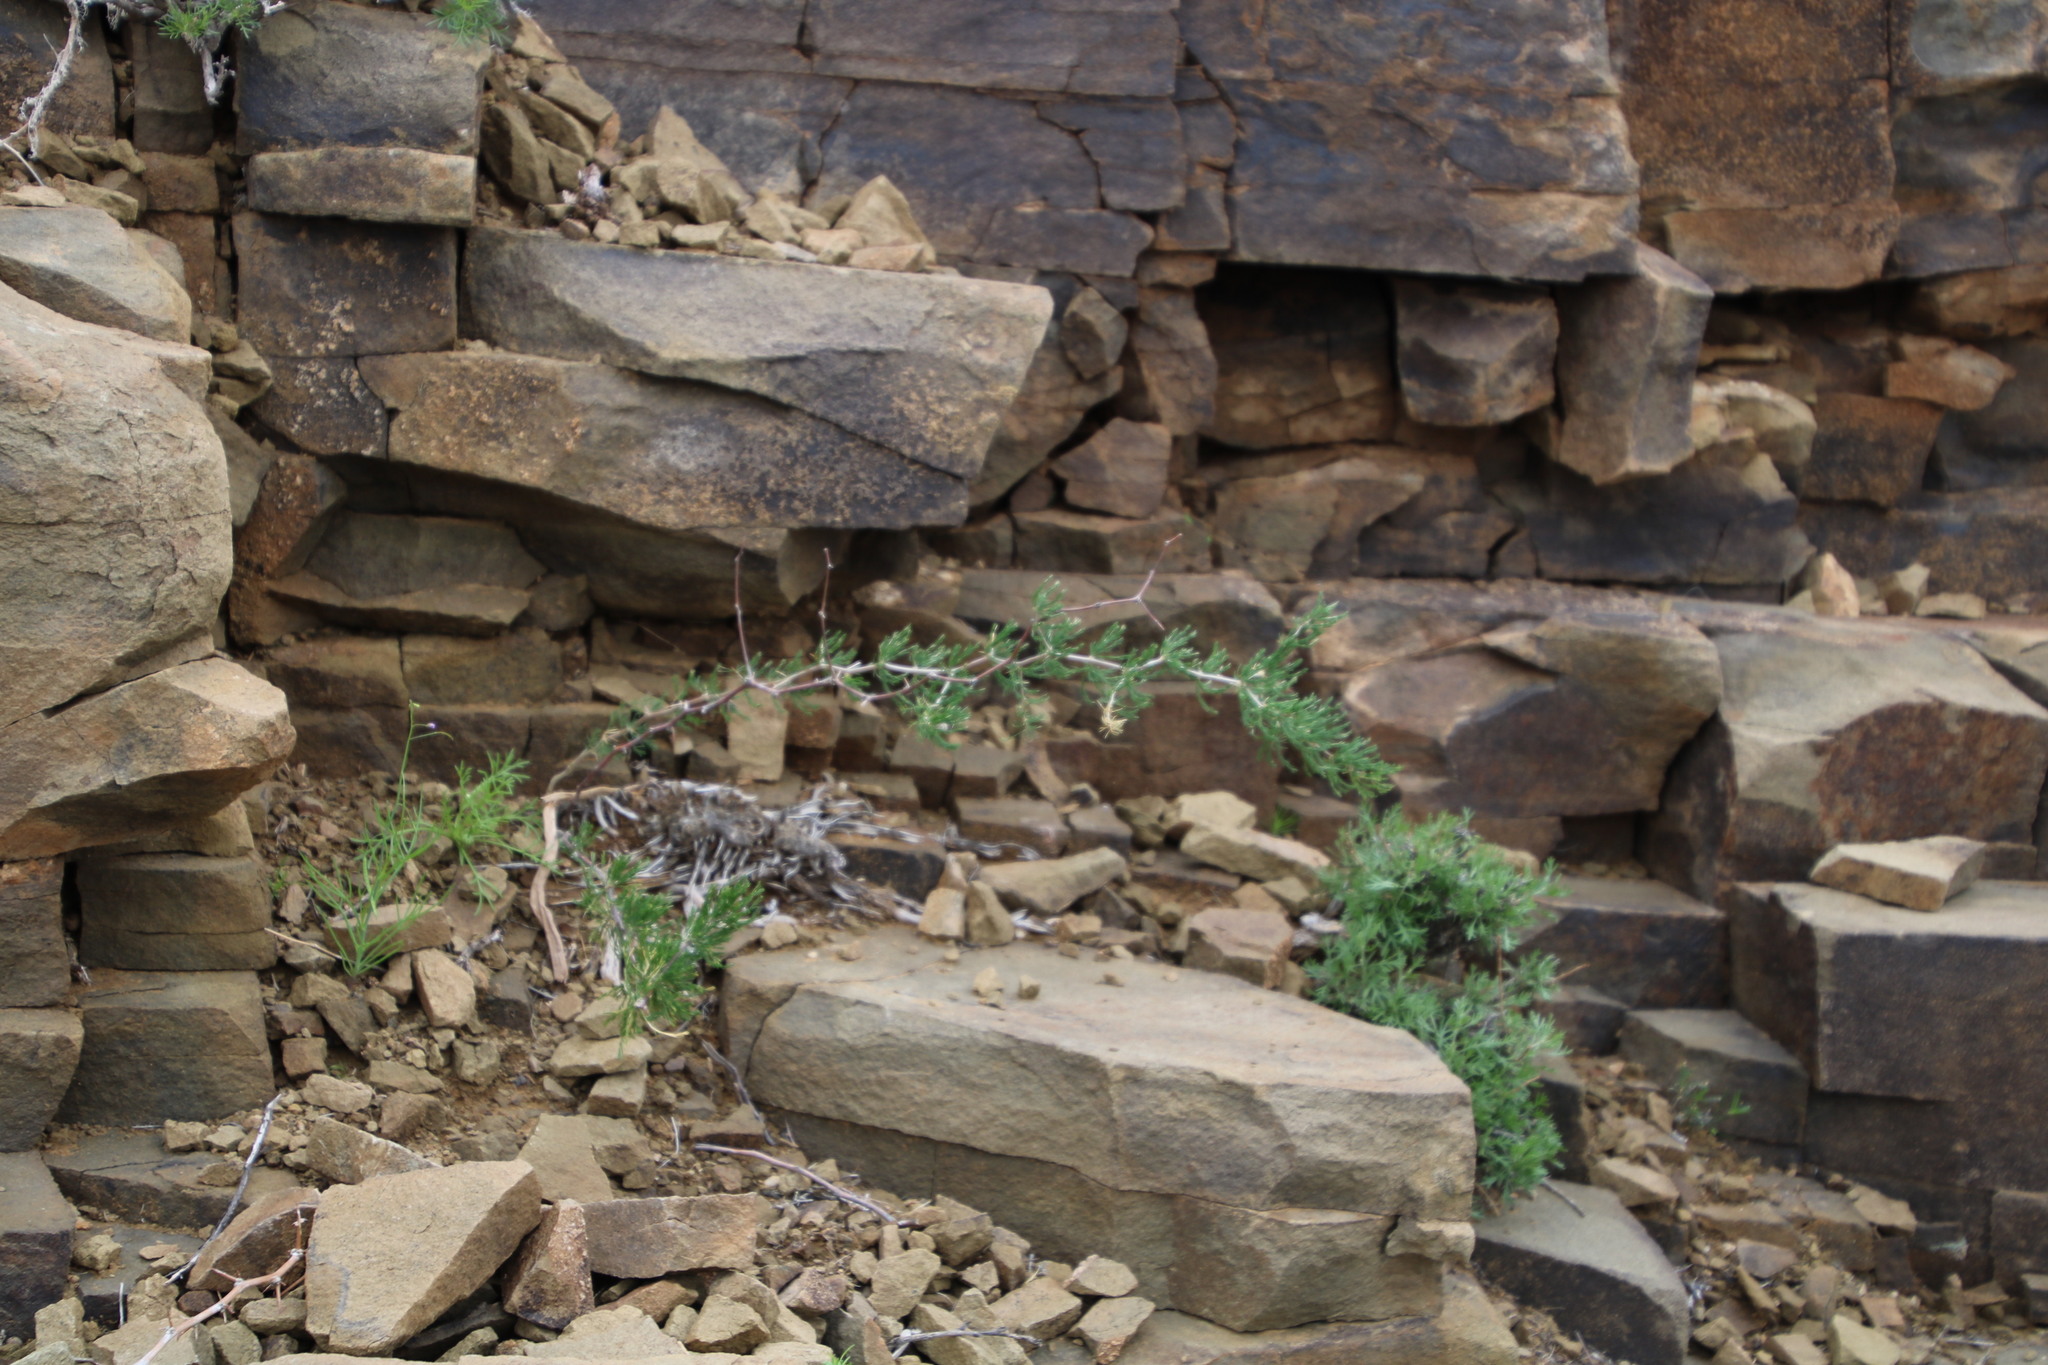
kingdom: Plantae
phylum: Tracheophyta
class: Liliopsida
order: Asparagales
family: Asparagaceae
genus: Asparagus
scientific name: Asparagus burchellii
